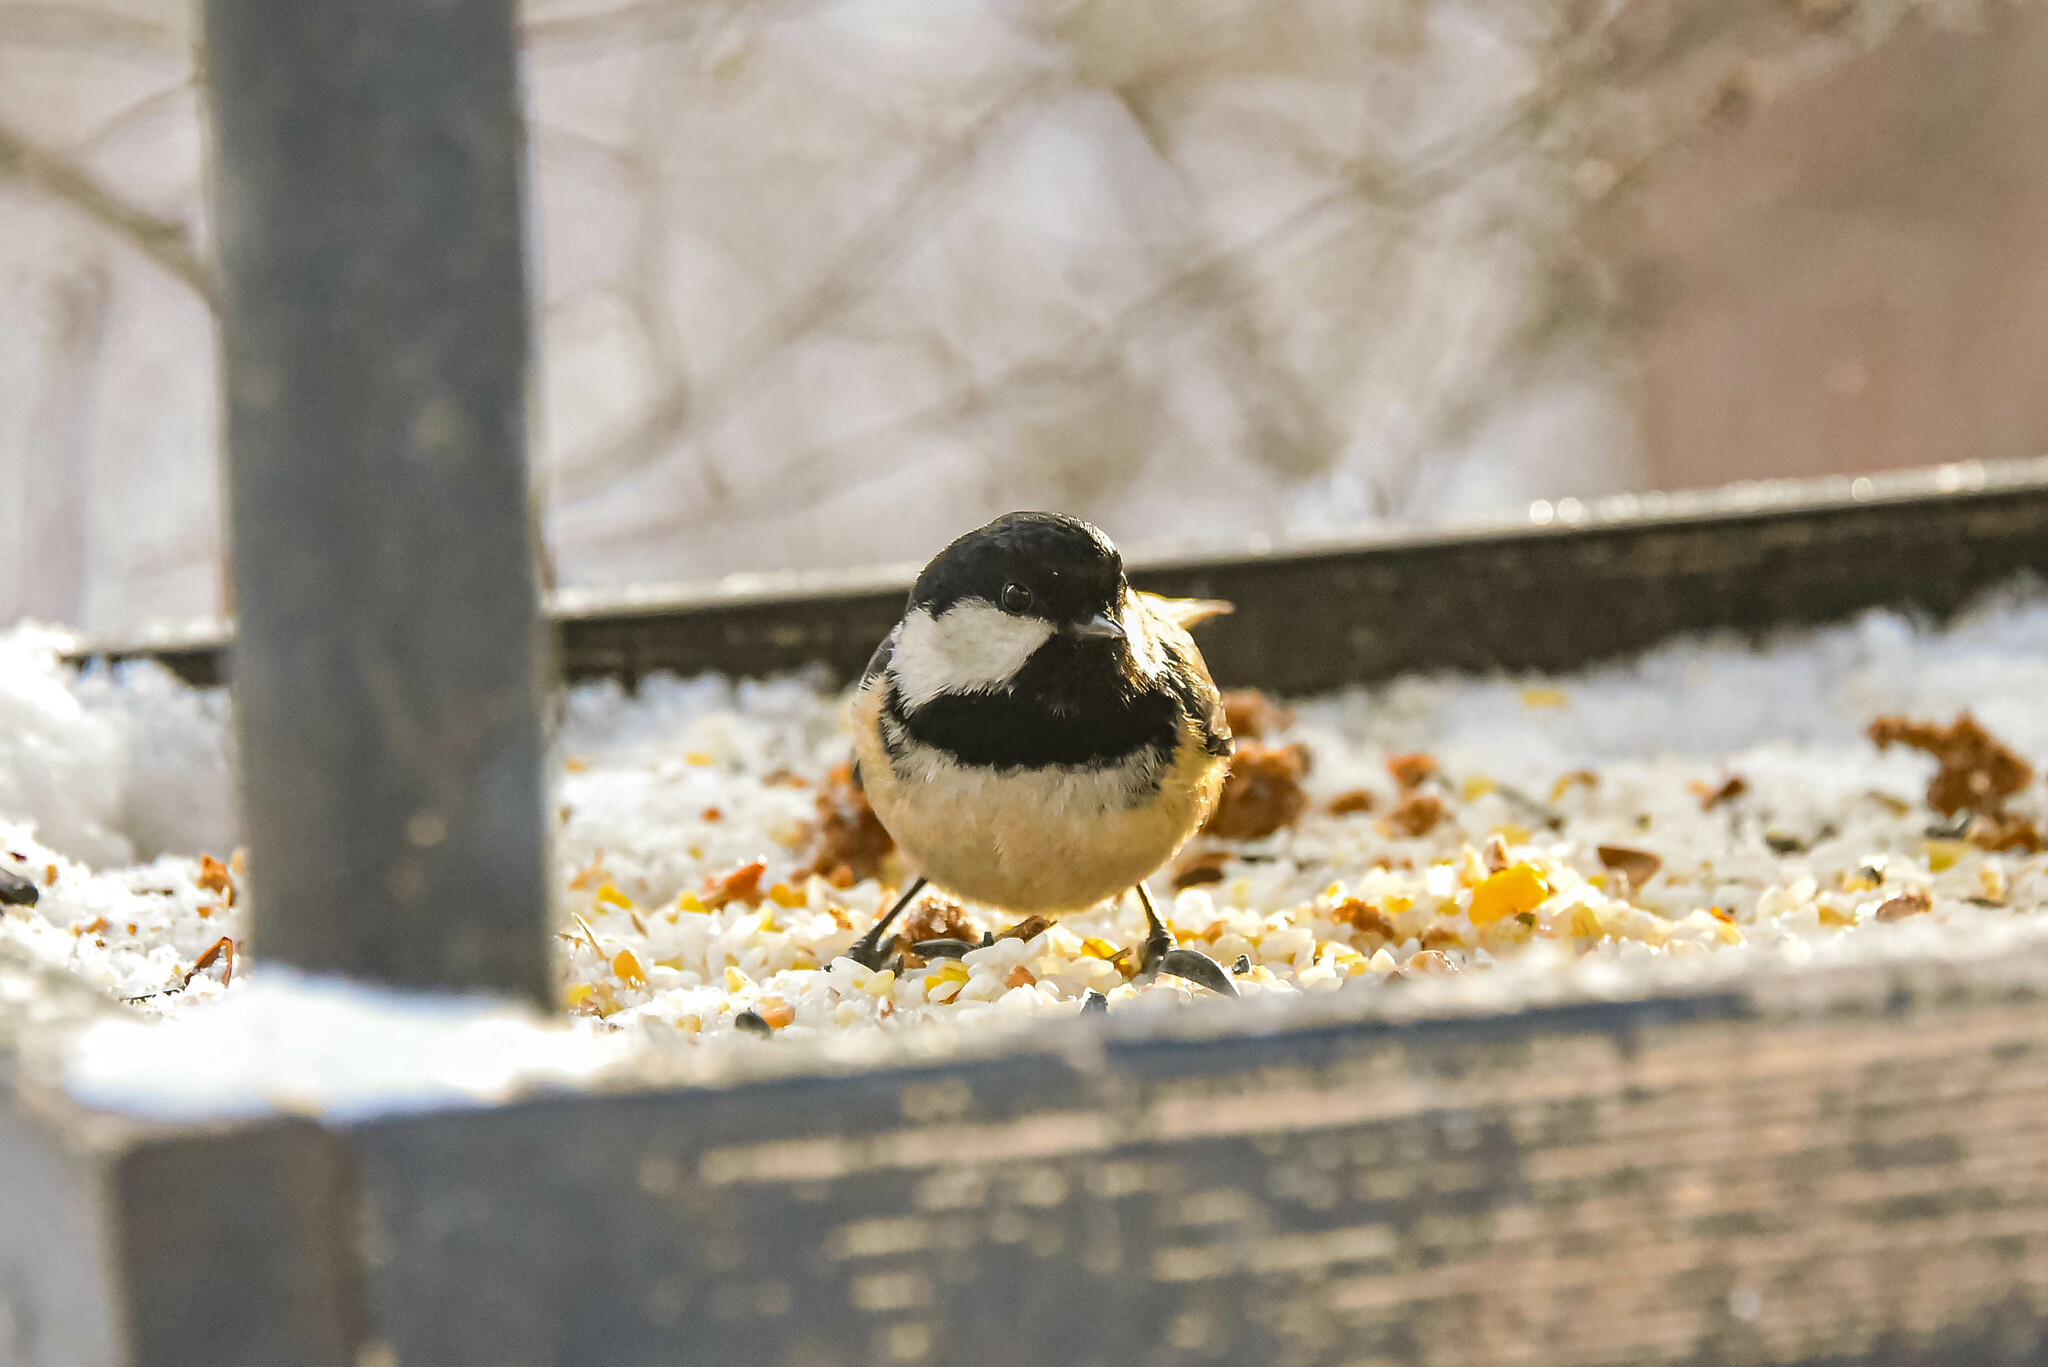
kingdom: Animalia
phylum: Chordata
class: Aves
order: Passeriformes
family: Paridae
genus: Periparus
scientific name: Periparus ater
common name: Coal tit
